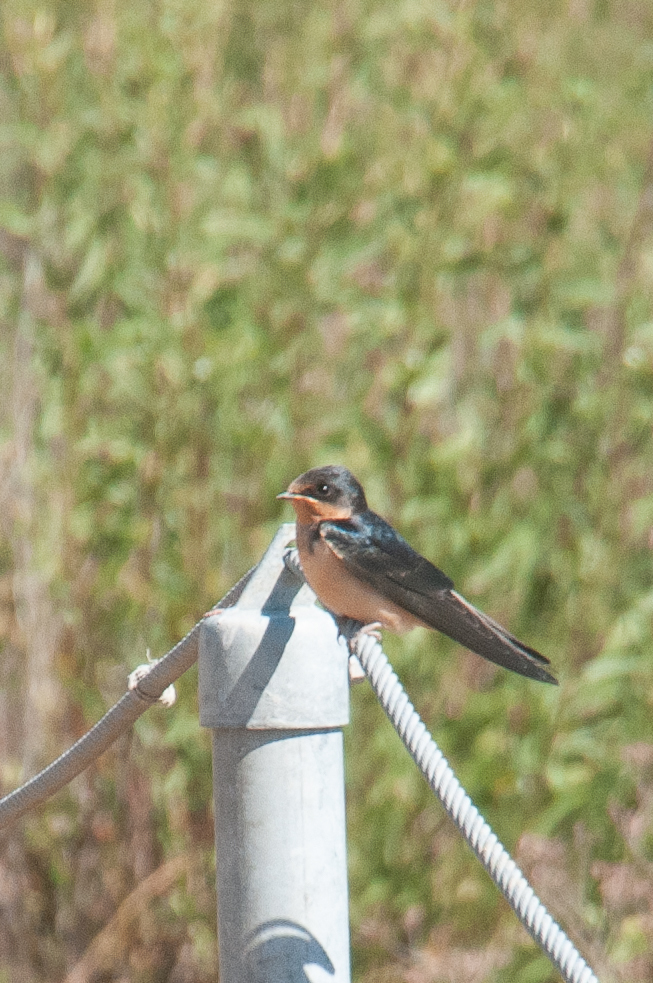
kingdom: Animalia
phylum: Chordata
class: Aves
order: Passeriformes
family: Hirundinidae
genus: Hirundo
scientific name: Hirundo rustica
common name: Barn swallow
